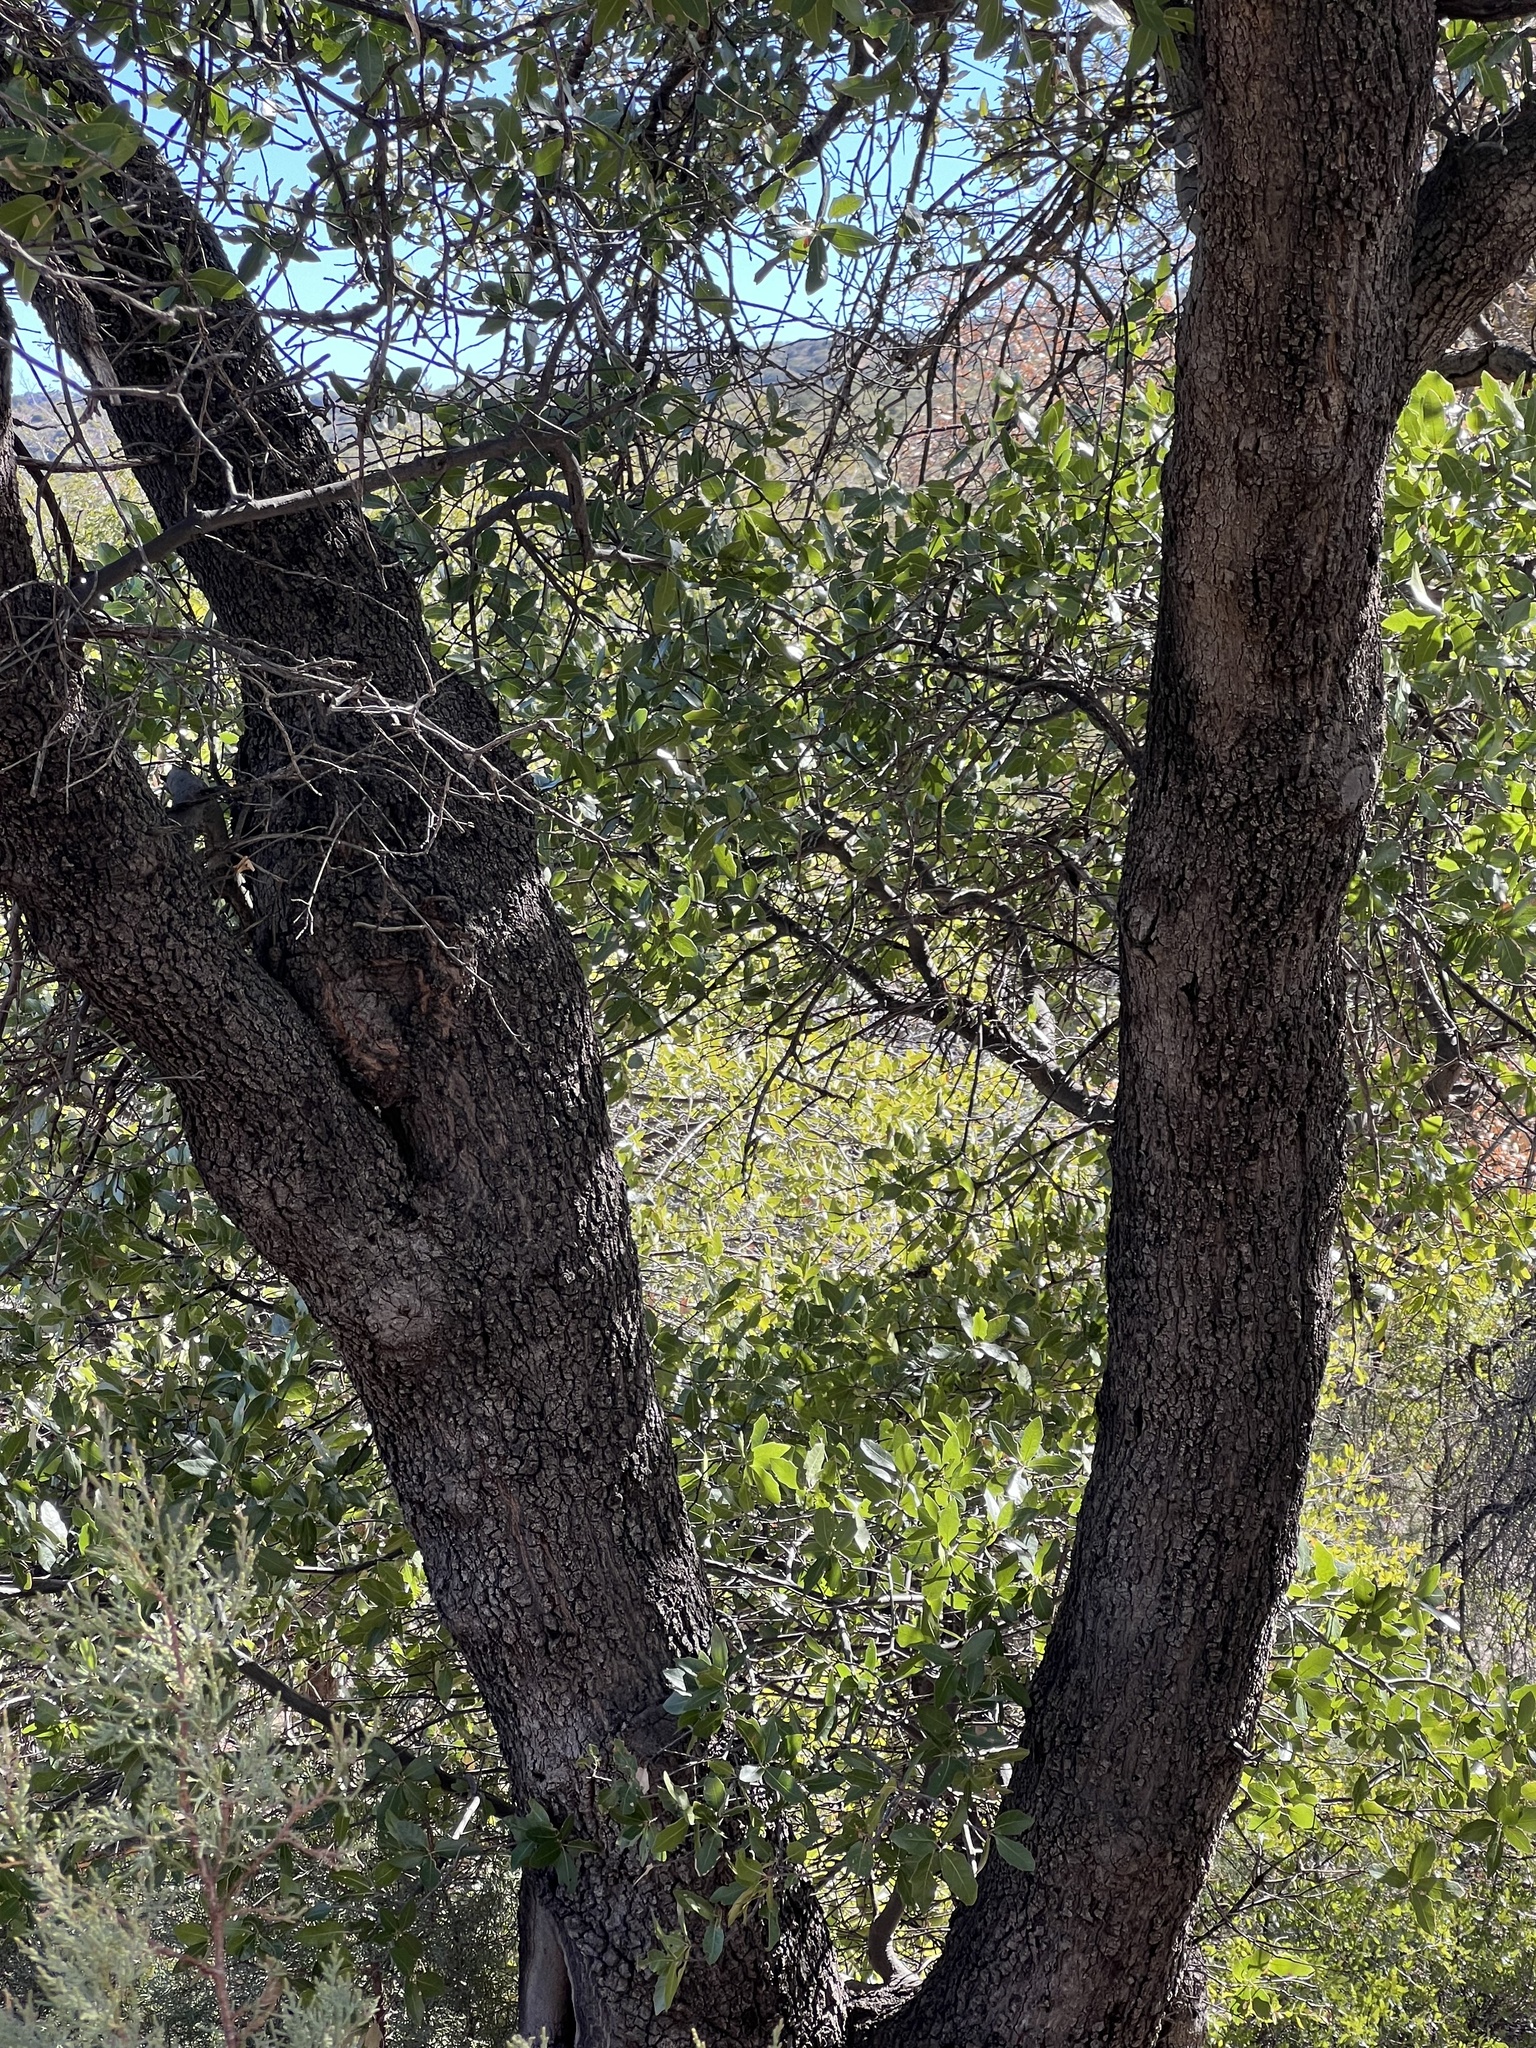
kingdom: Plantae
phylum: Tracheophyta
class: Magnoliopsida
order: Fagales
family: Fagaceae
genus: Quercus
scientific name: Quercus emoryi
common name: Emory oak
